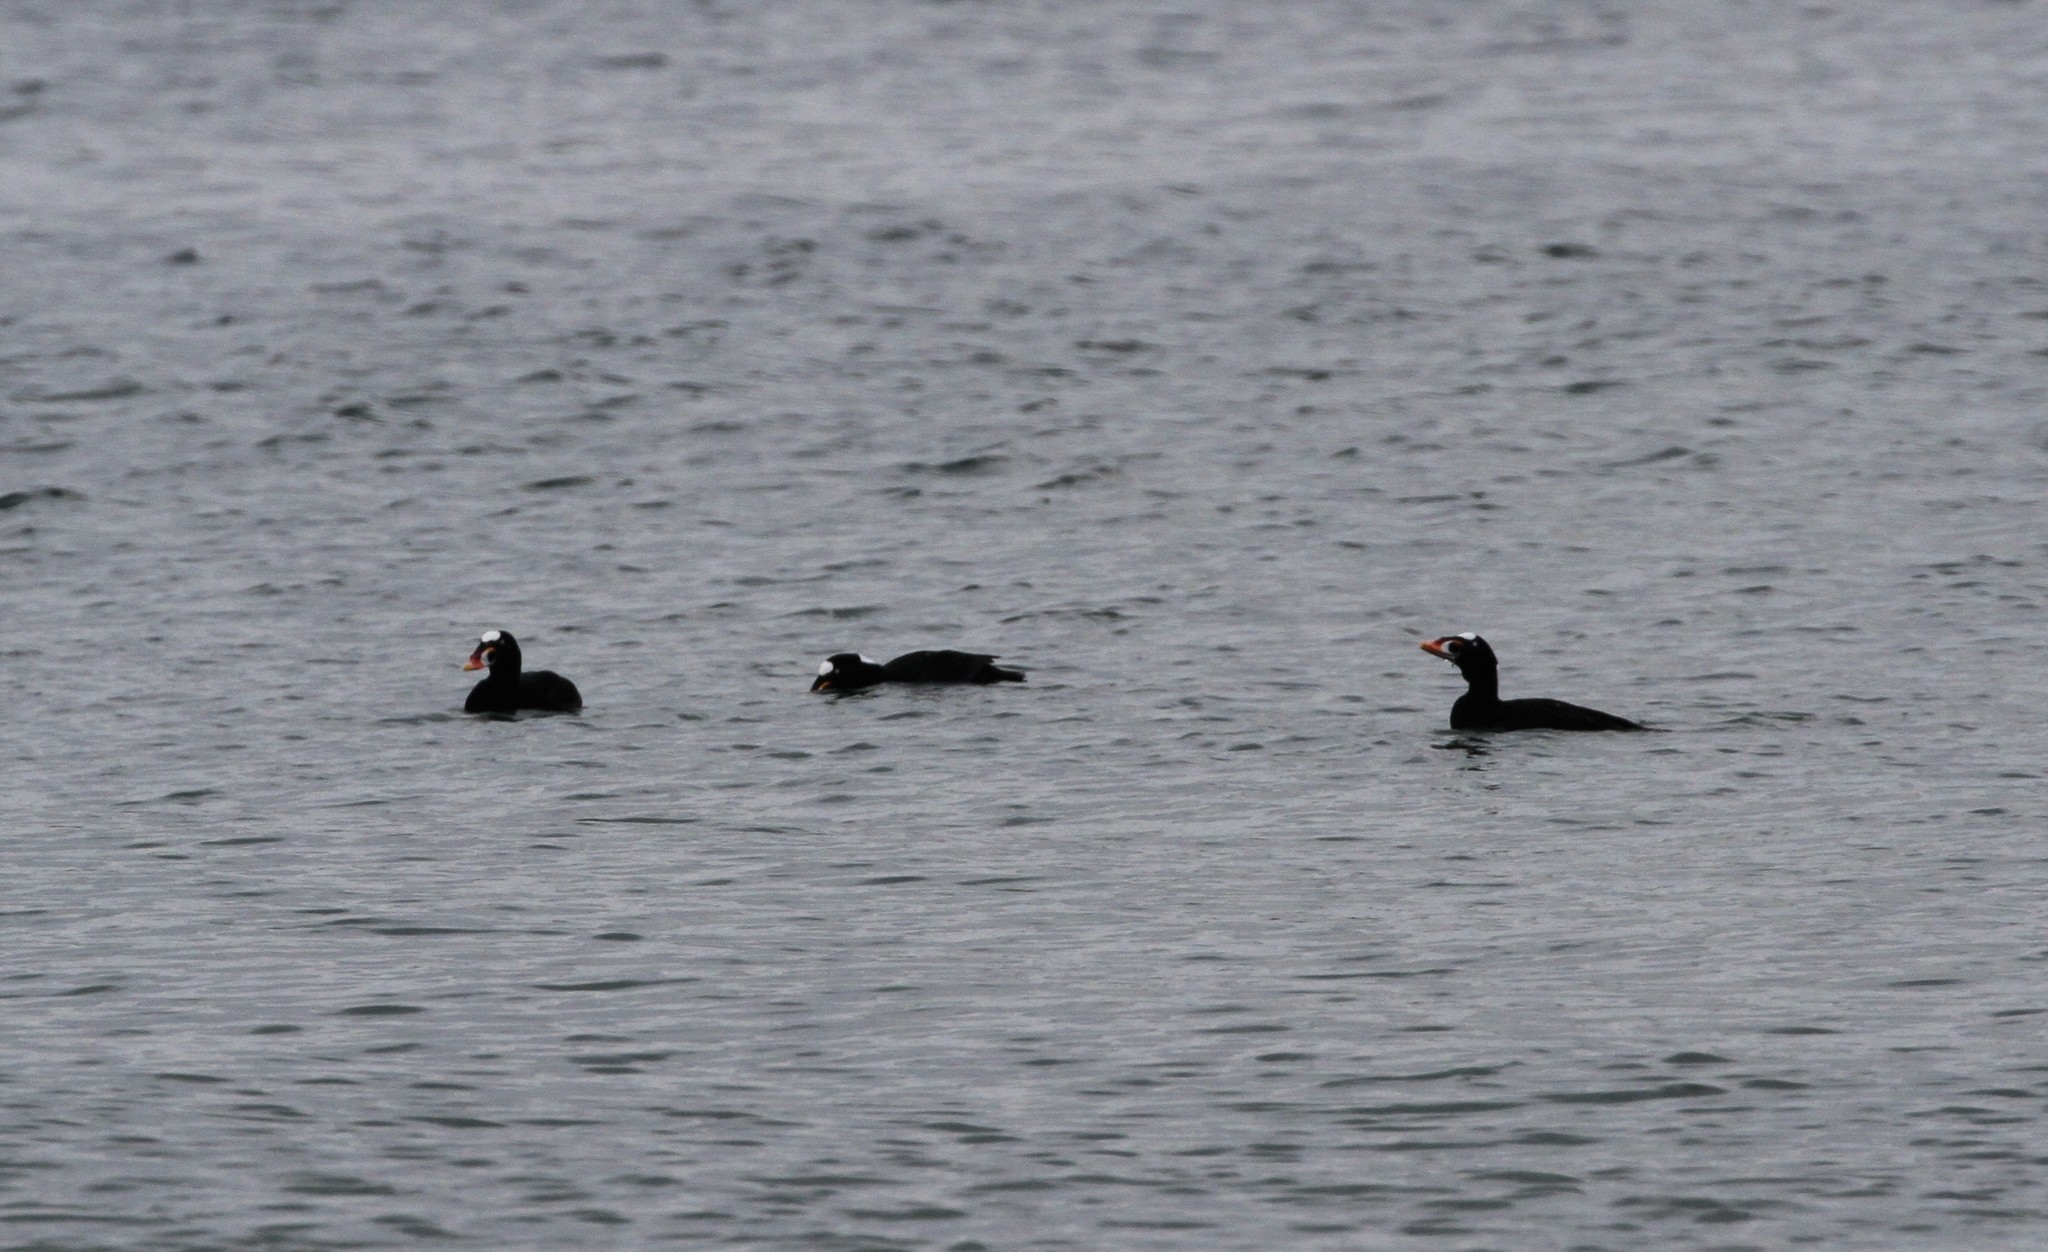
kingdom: Animalia
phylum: Chordata
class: Aves
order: Anseriformes
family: Anatidae
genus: Melanitta
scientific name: Melanitta perspicillata
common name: Surf scoter
